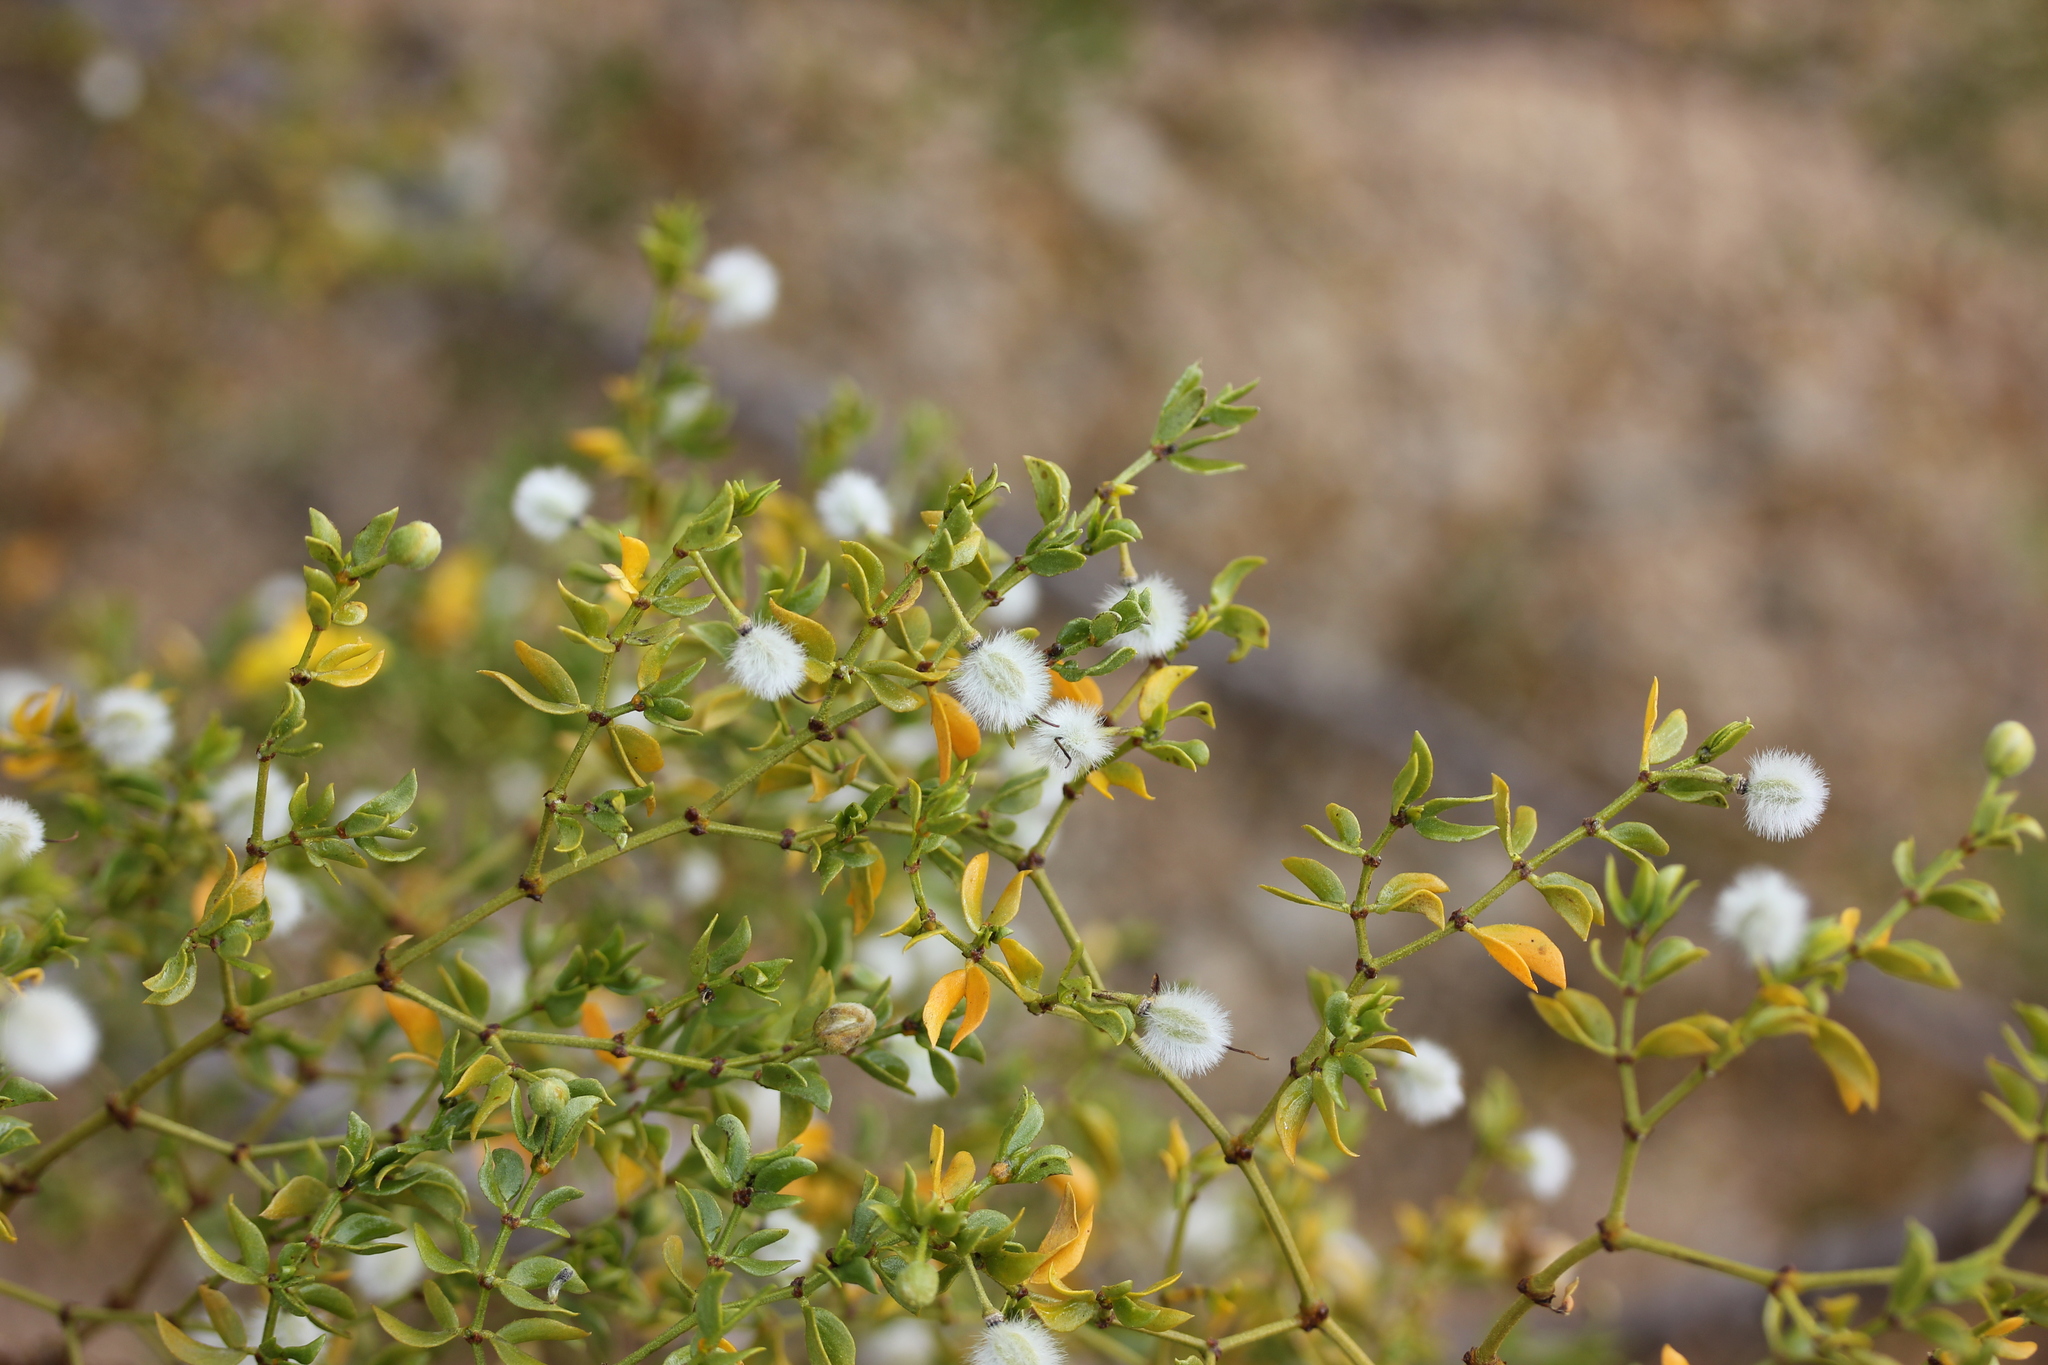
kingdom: Plantae
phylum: Tracheophyta
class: Magnoliopsida
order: Zygophyllales
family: Zygophyllaceae
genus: Larrea
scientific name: Larrea tridentata
